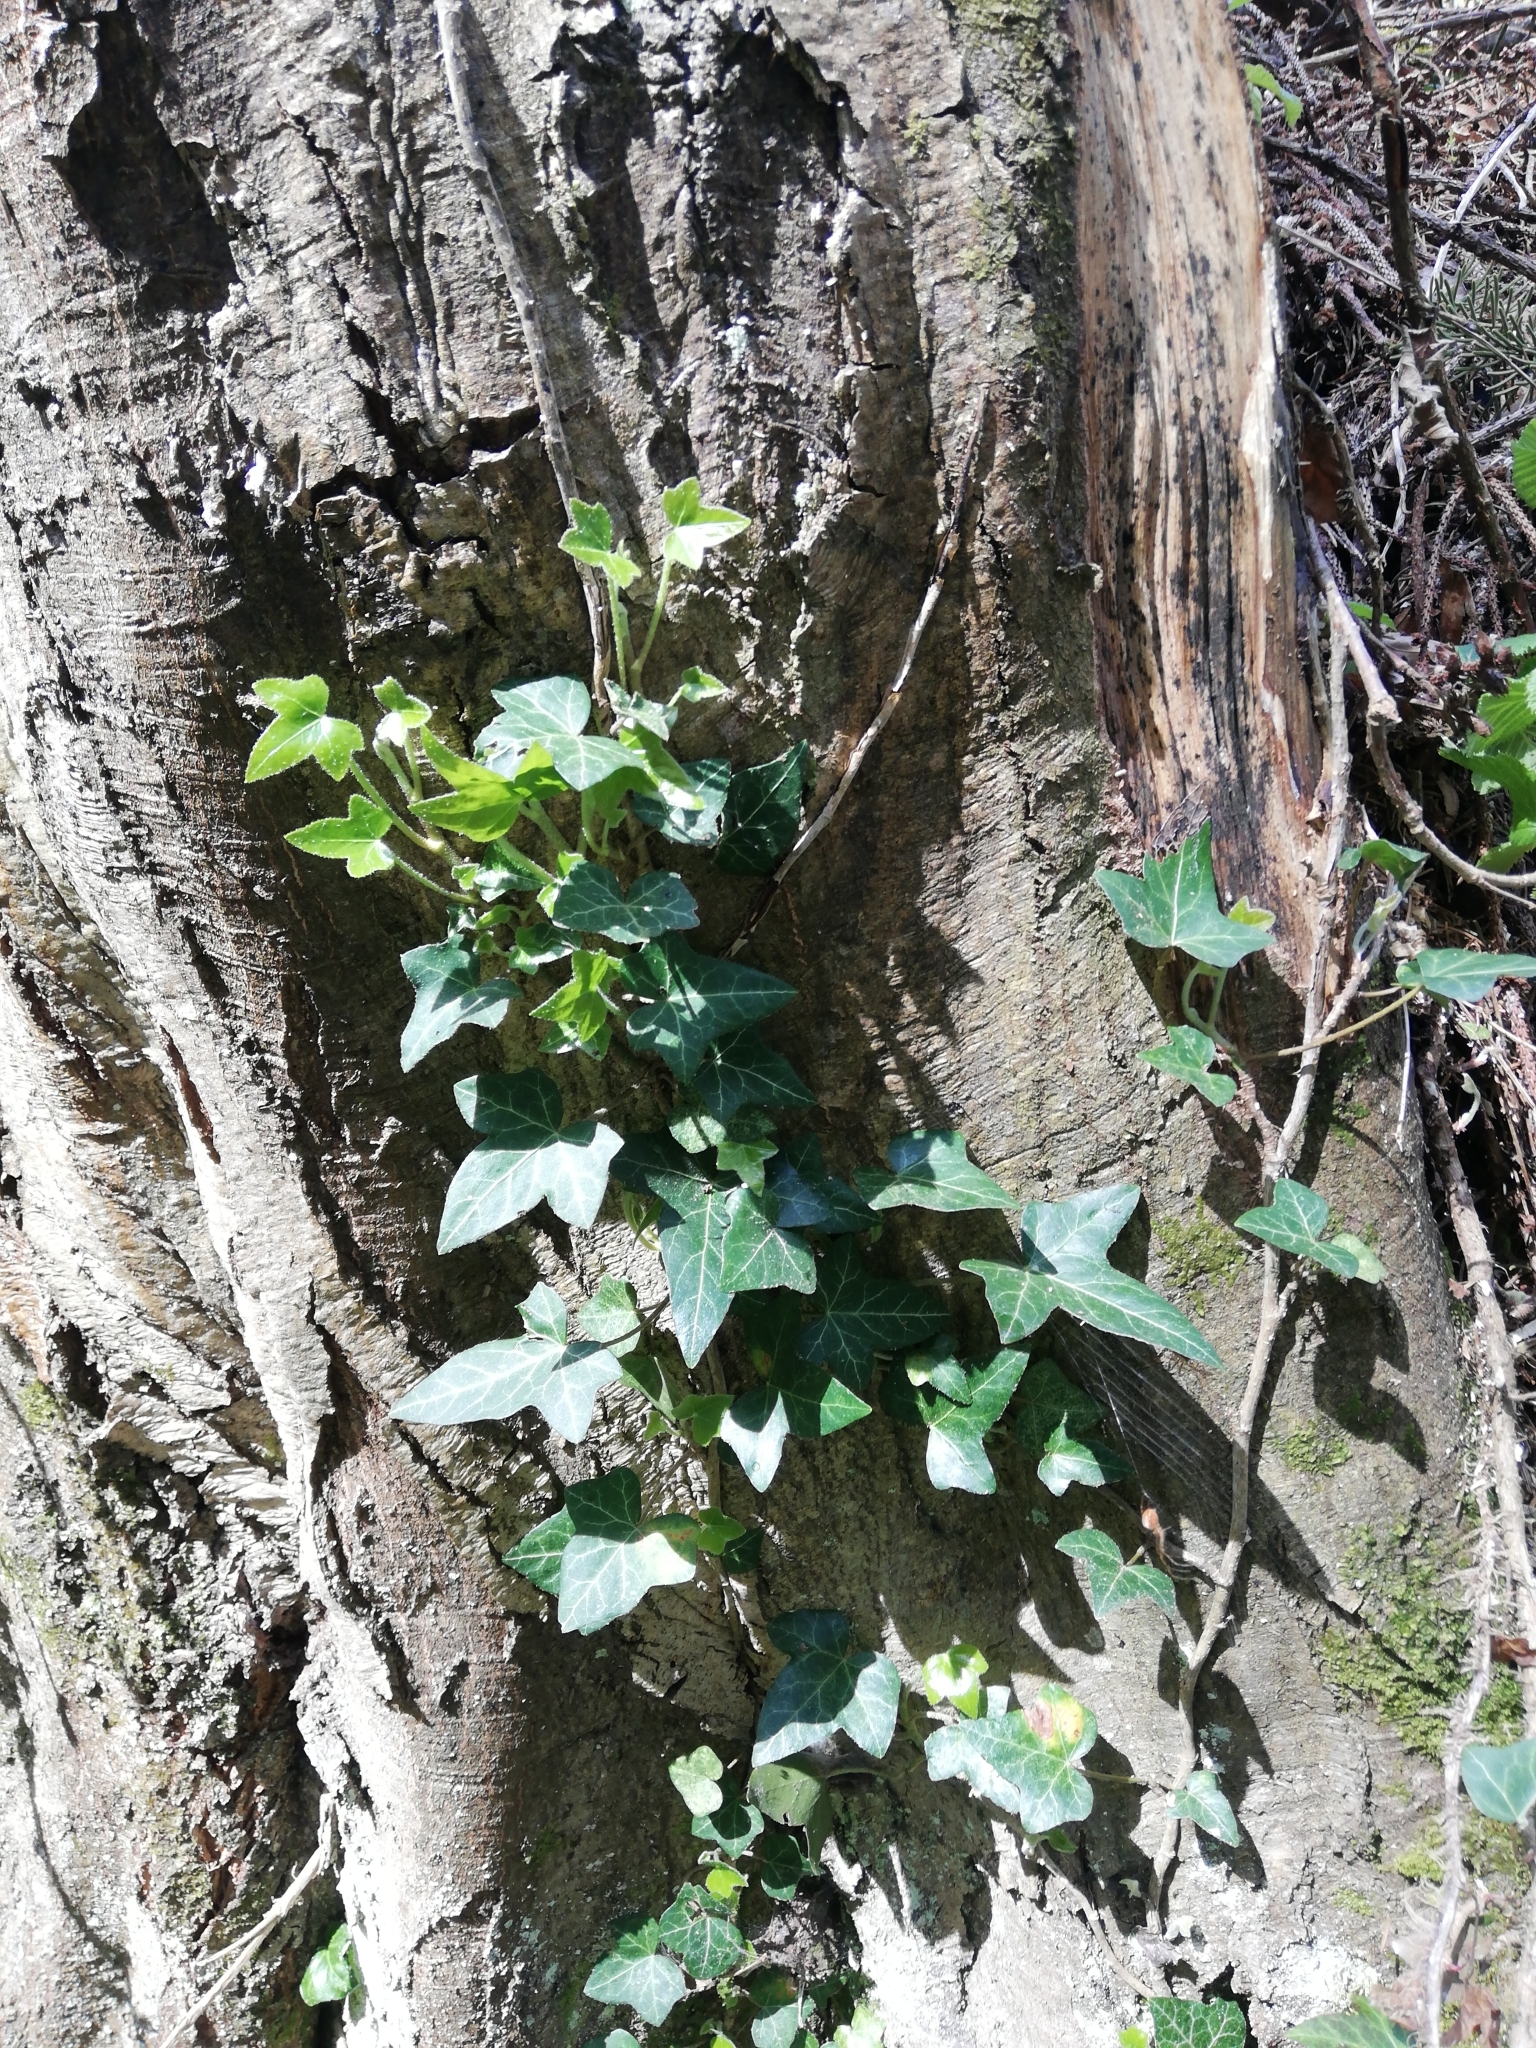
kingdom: Plantae
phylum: Tracheophyta
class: Magnoliopsida
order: Apiales
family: Araliaceae
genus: Hedera
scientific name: Hedera helix
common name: Ivy
